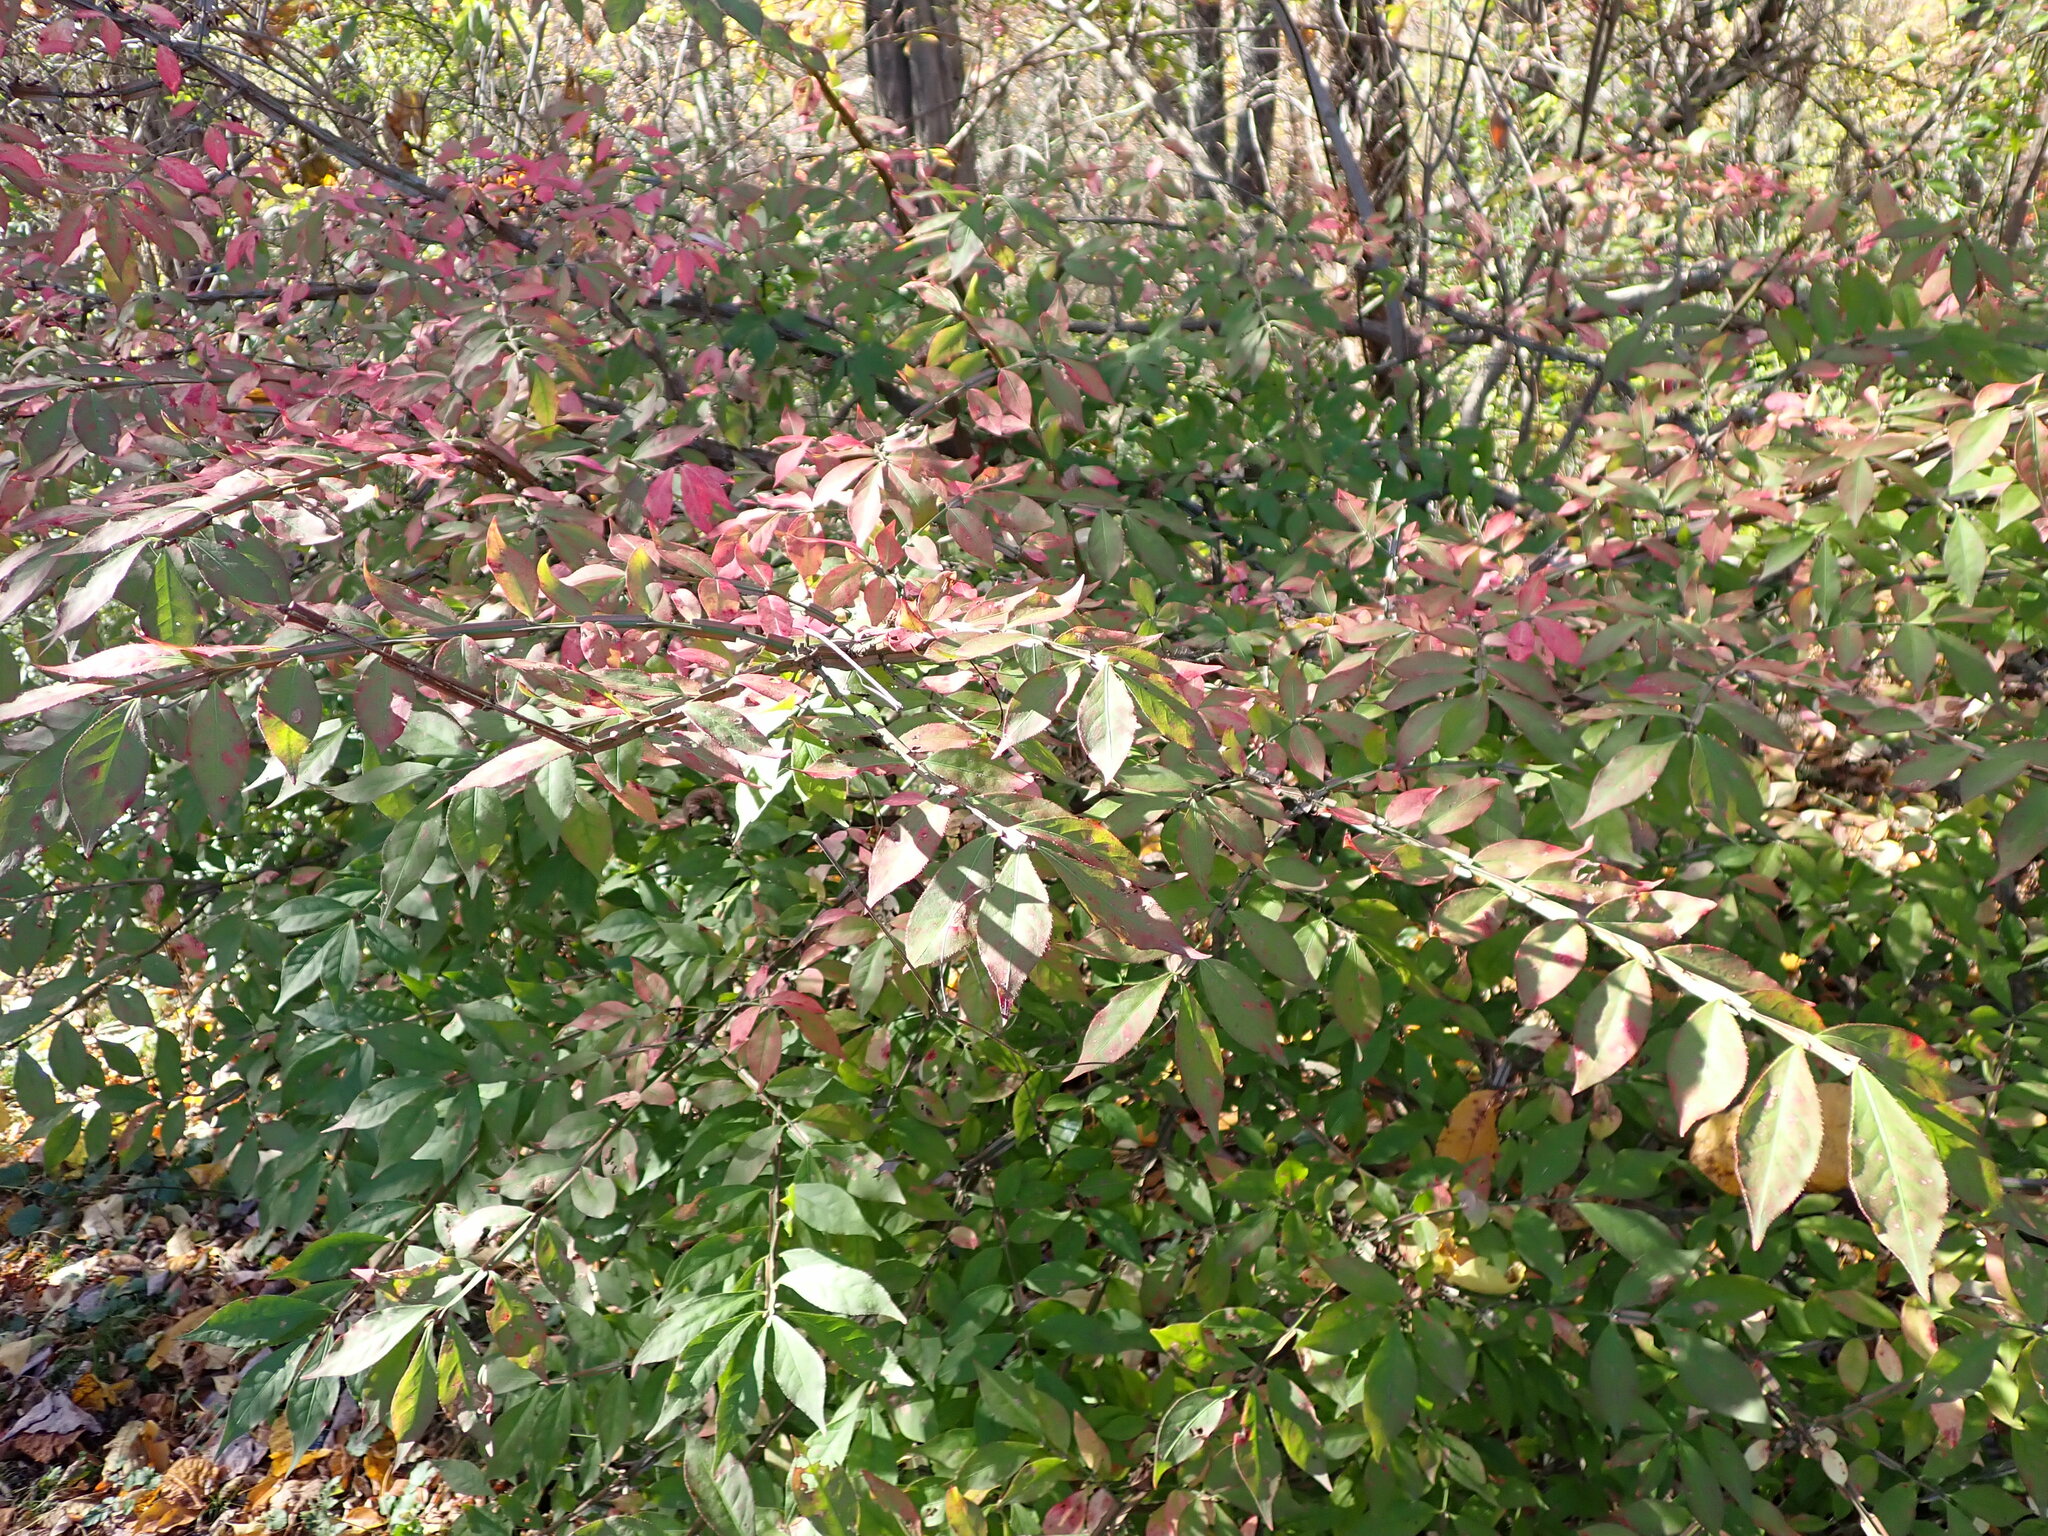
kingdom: Plantae
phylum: Tracheophyta
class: Magnoliopsida
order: Celastrales
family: Celastraceae
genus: Euonymus
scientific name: Euonymus alatus
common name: Winged euonymus
